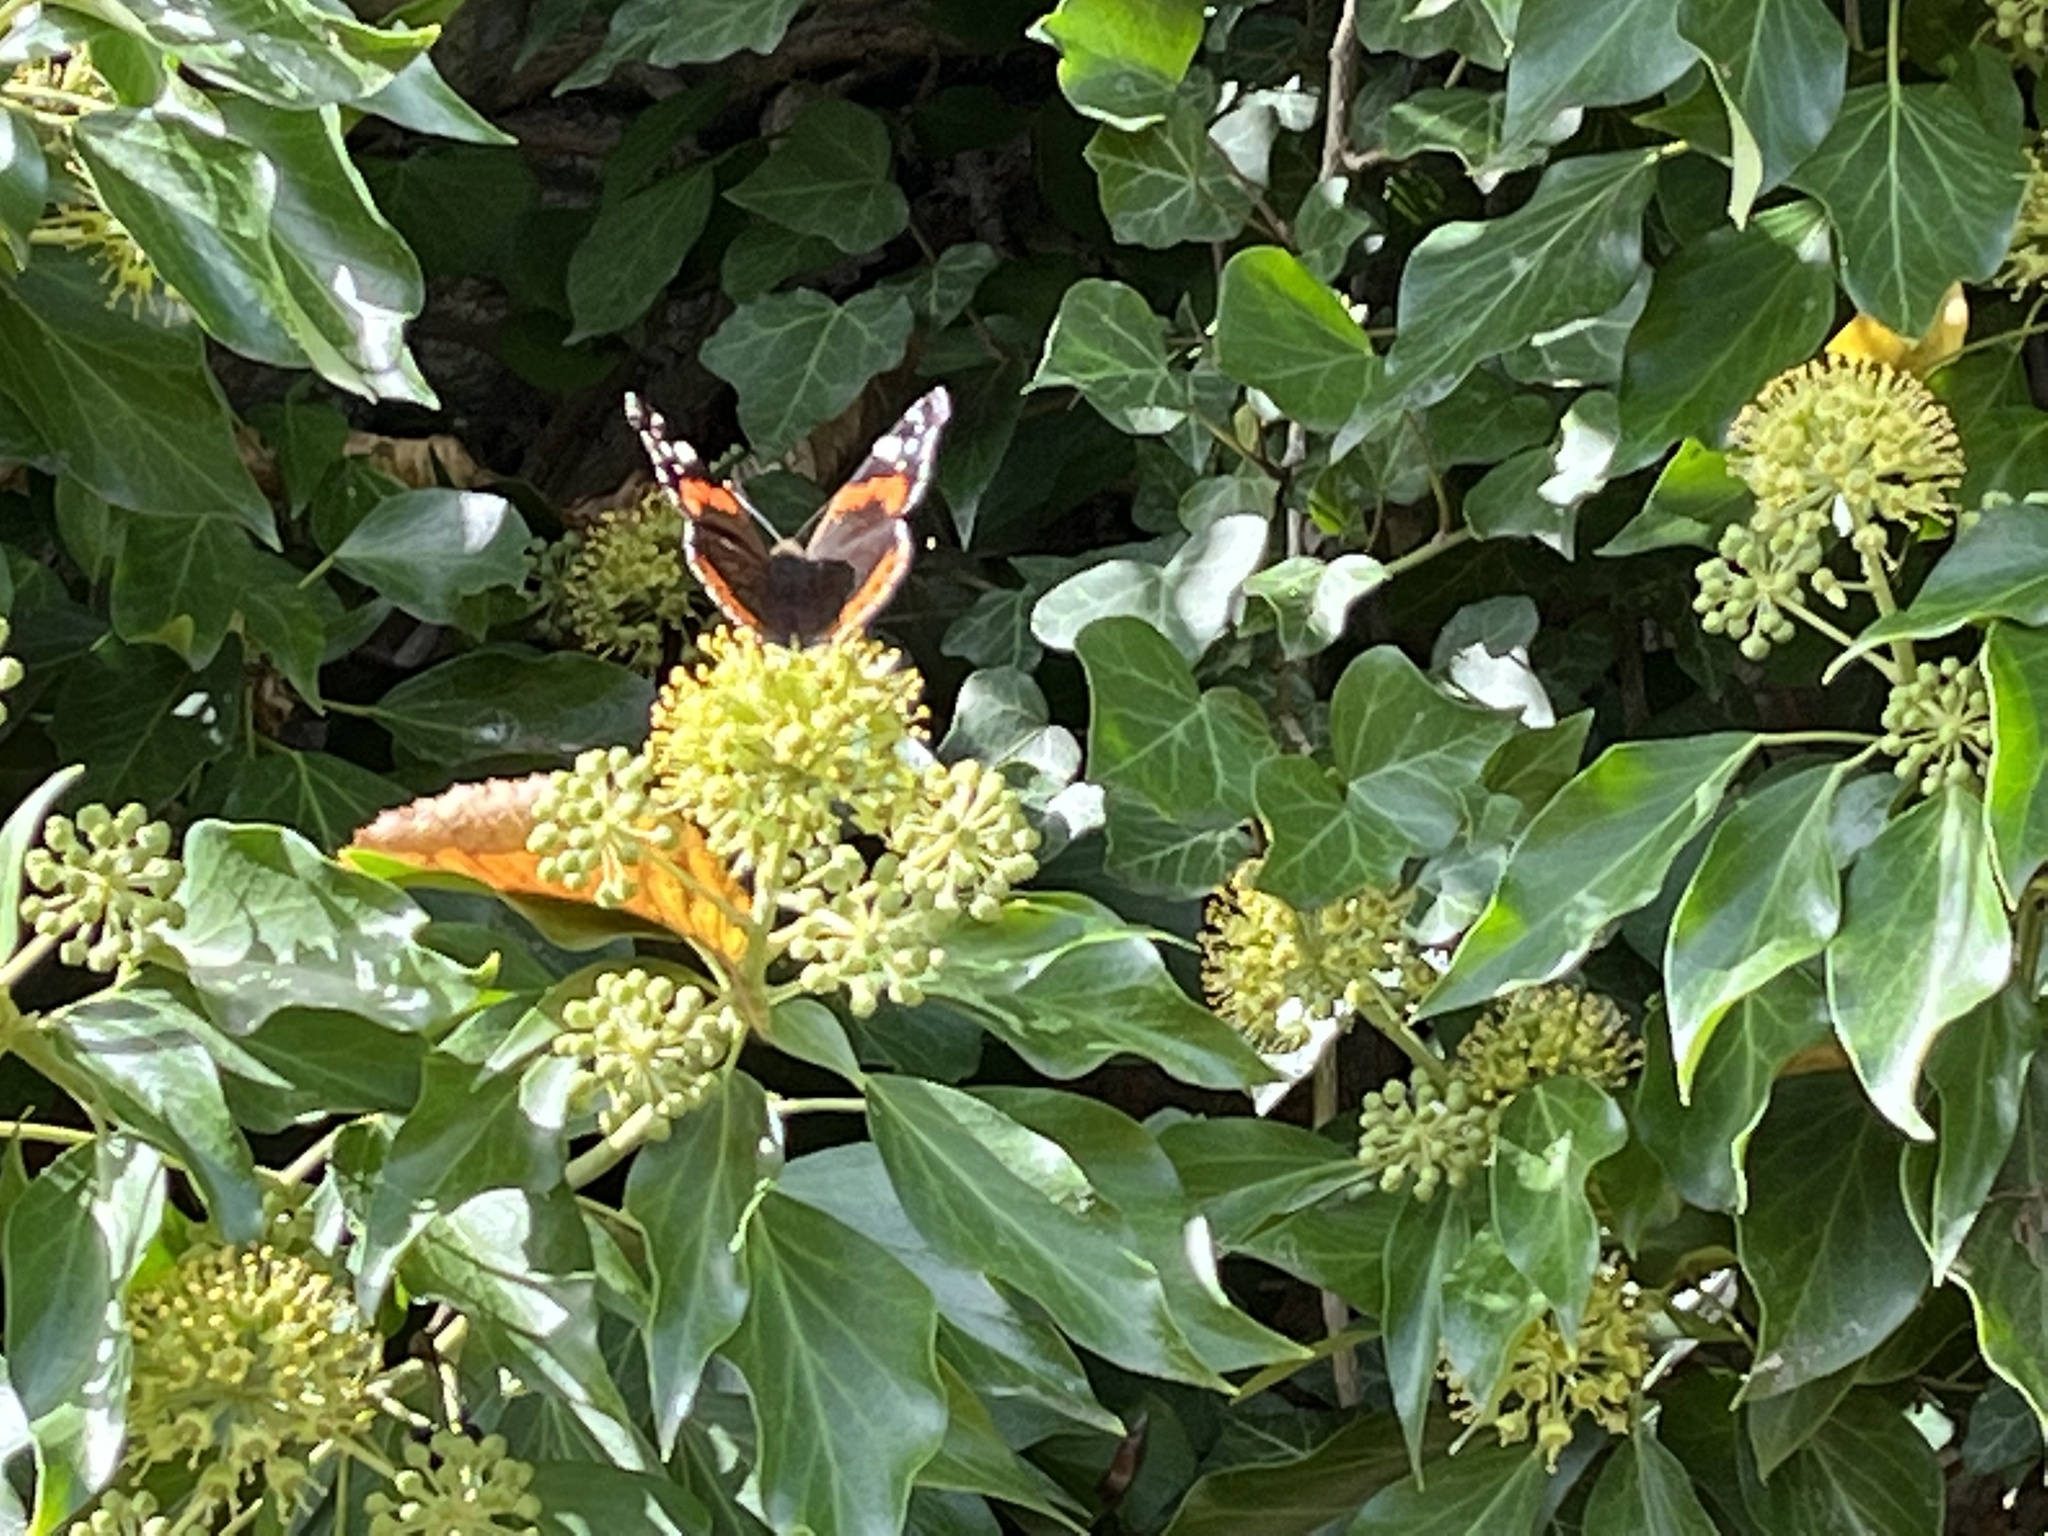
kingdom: Animalia
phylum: Arthropoda
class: Insecta
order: Lepidoptera
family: Nymphalidae
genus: Vanessa
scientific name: Vanessa atalanta
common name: Red admiral
